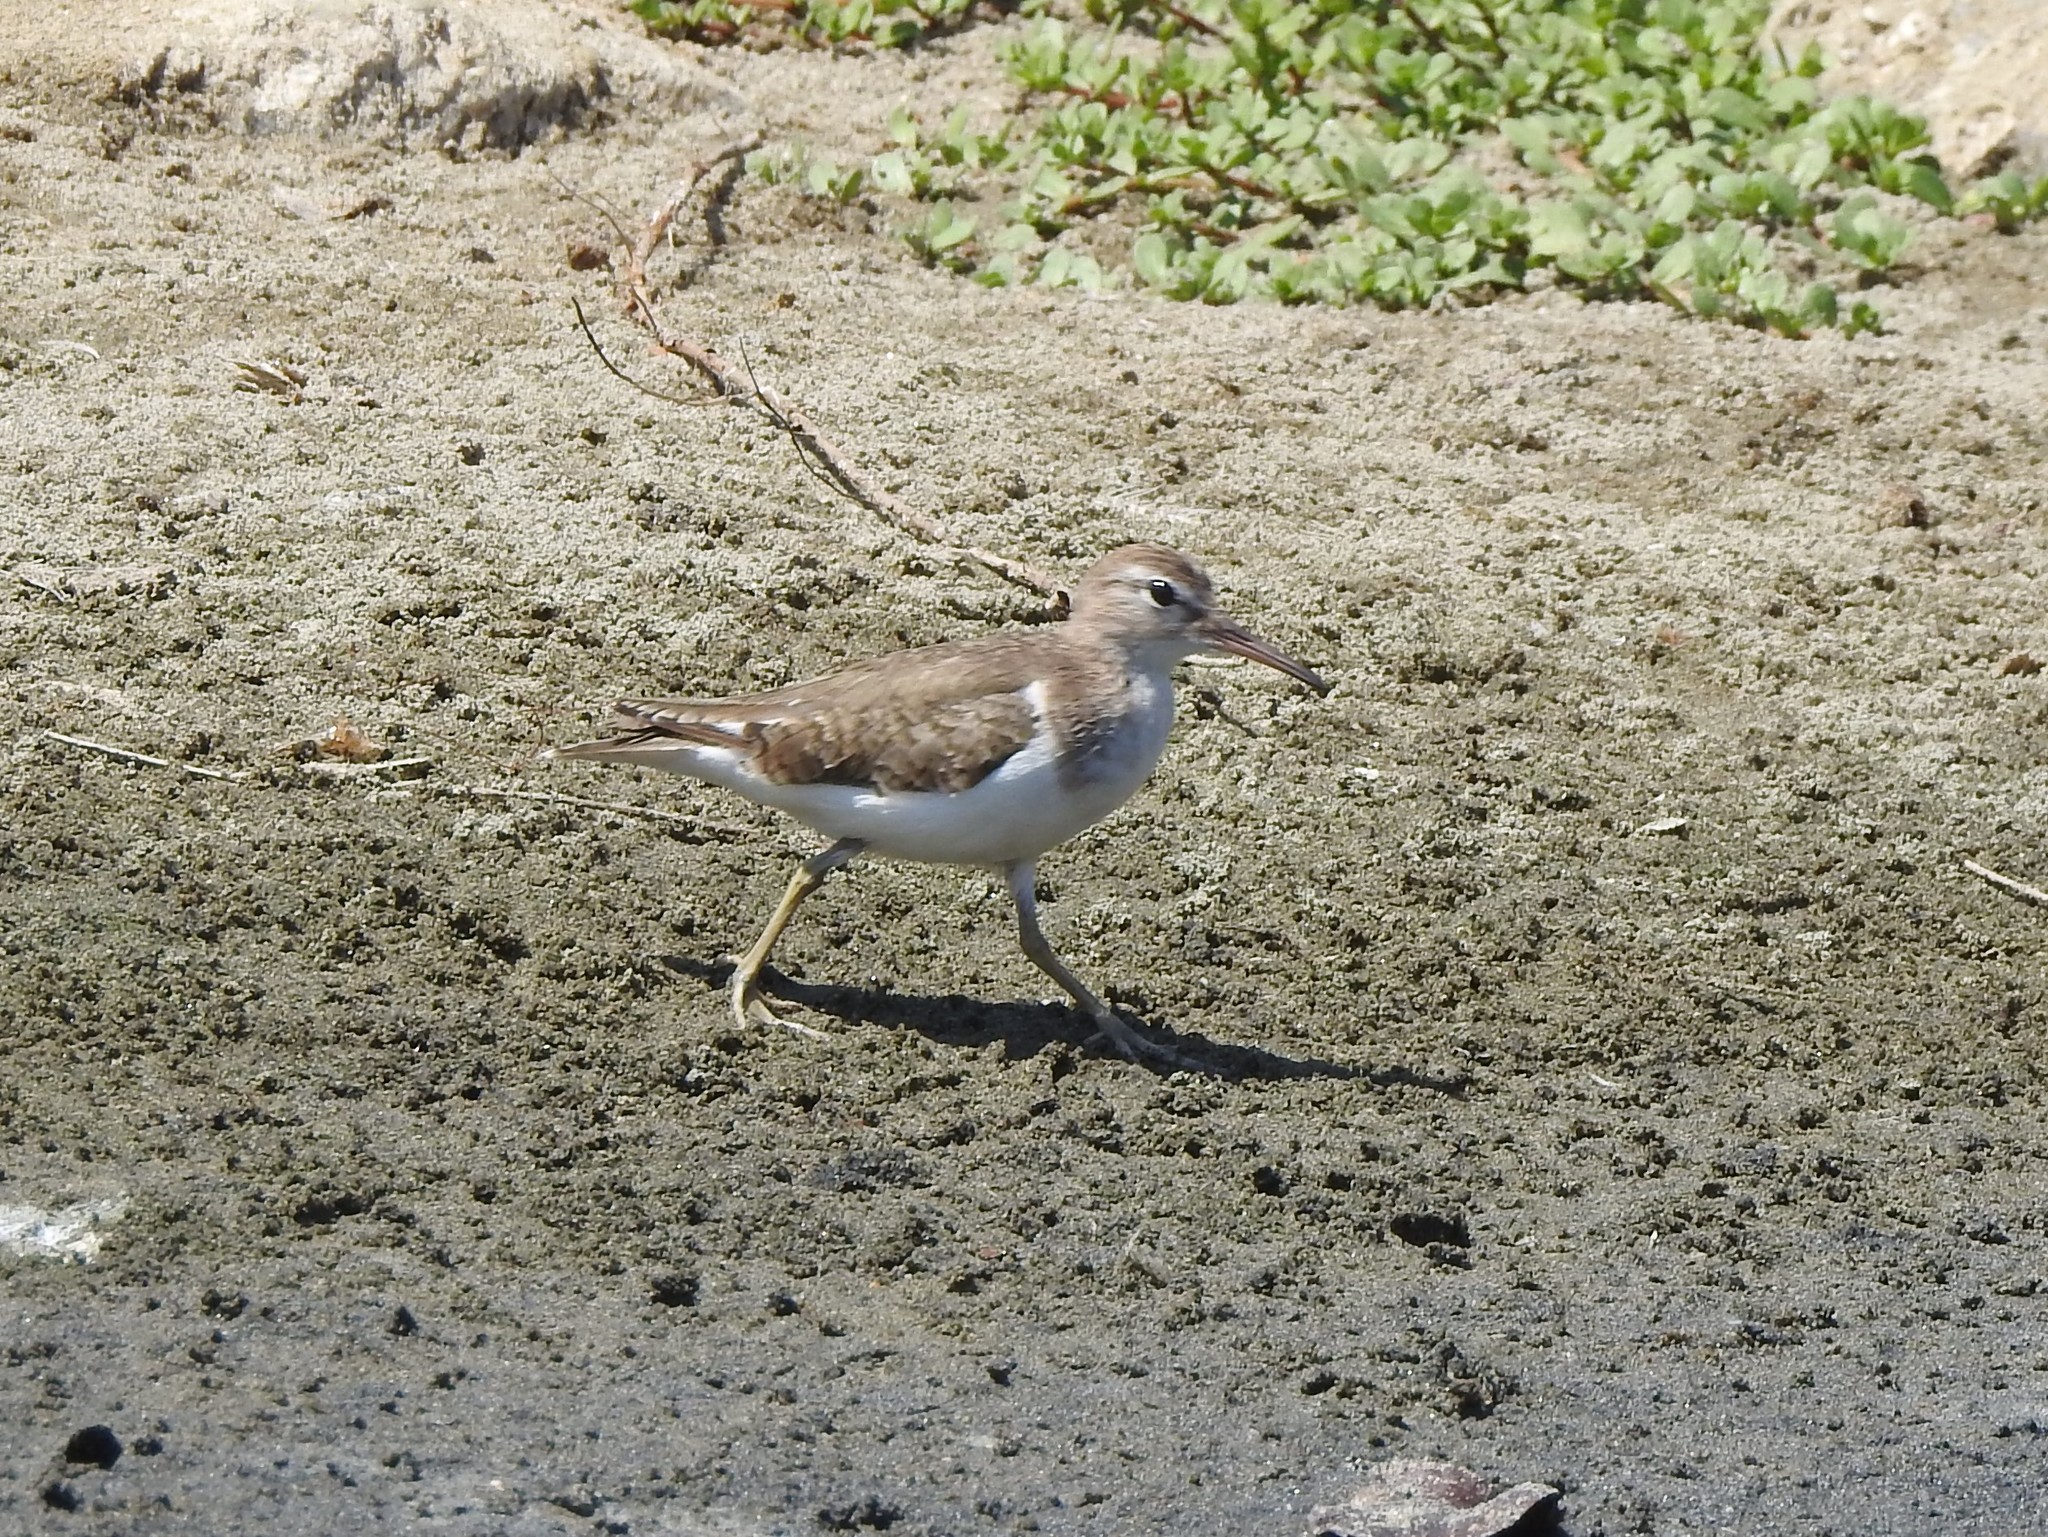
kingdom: Animalia
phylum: Chordata
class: Aves
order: Charadriiformes
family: Scolopacidae
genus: Actitis
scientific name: Actitis macularius
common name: Spotted sandpiper
